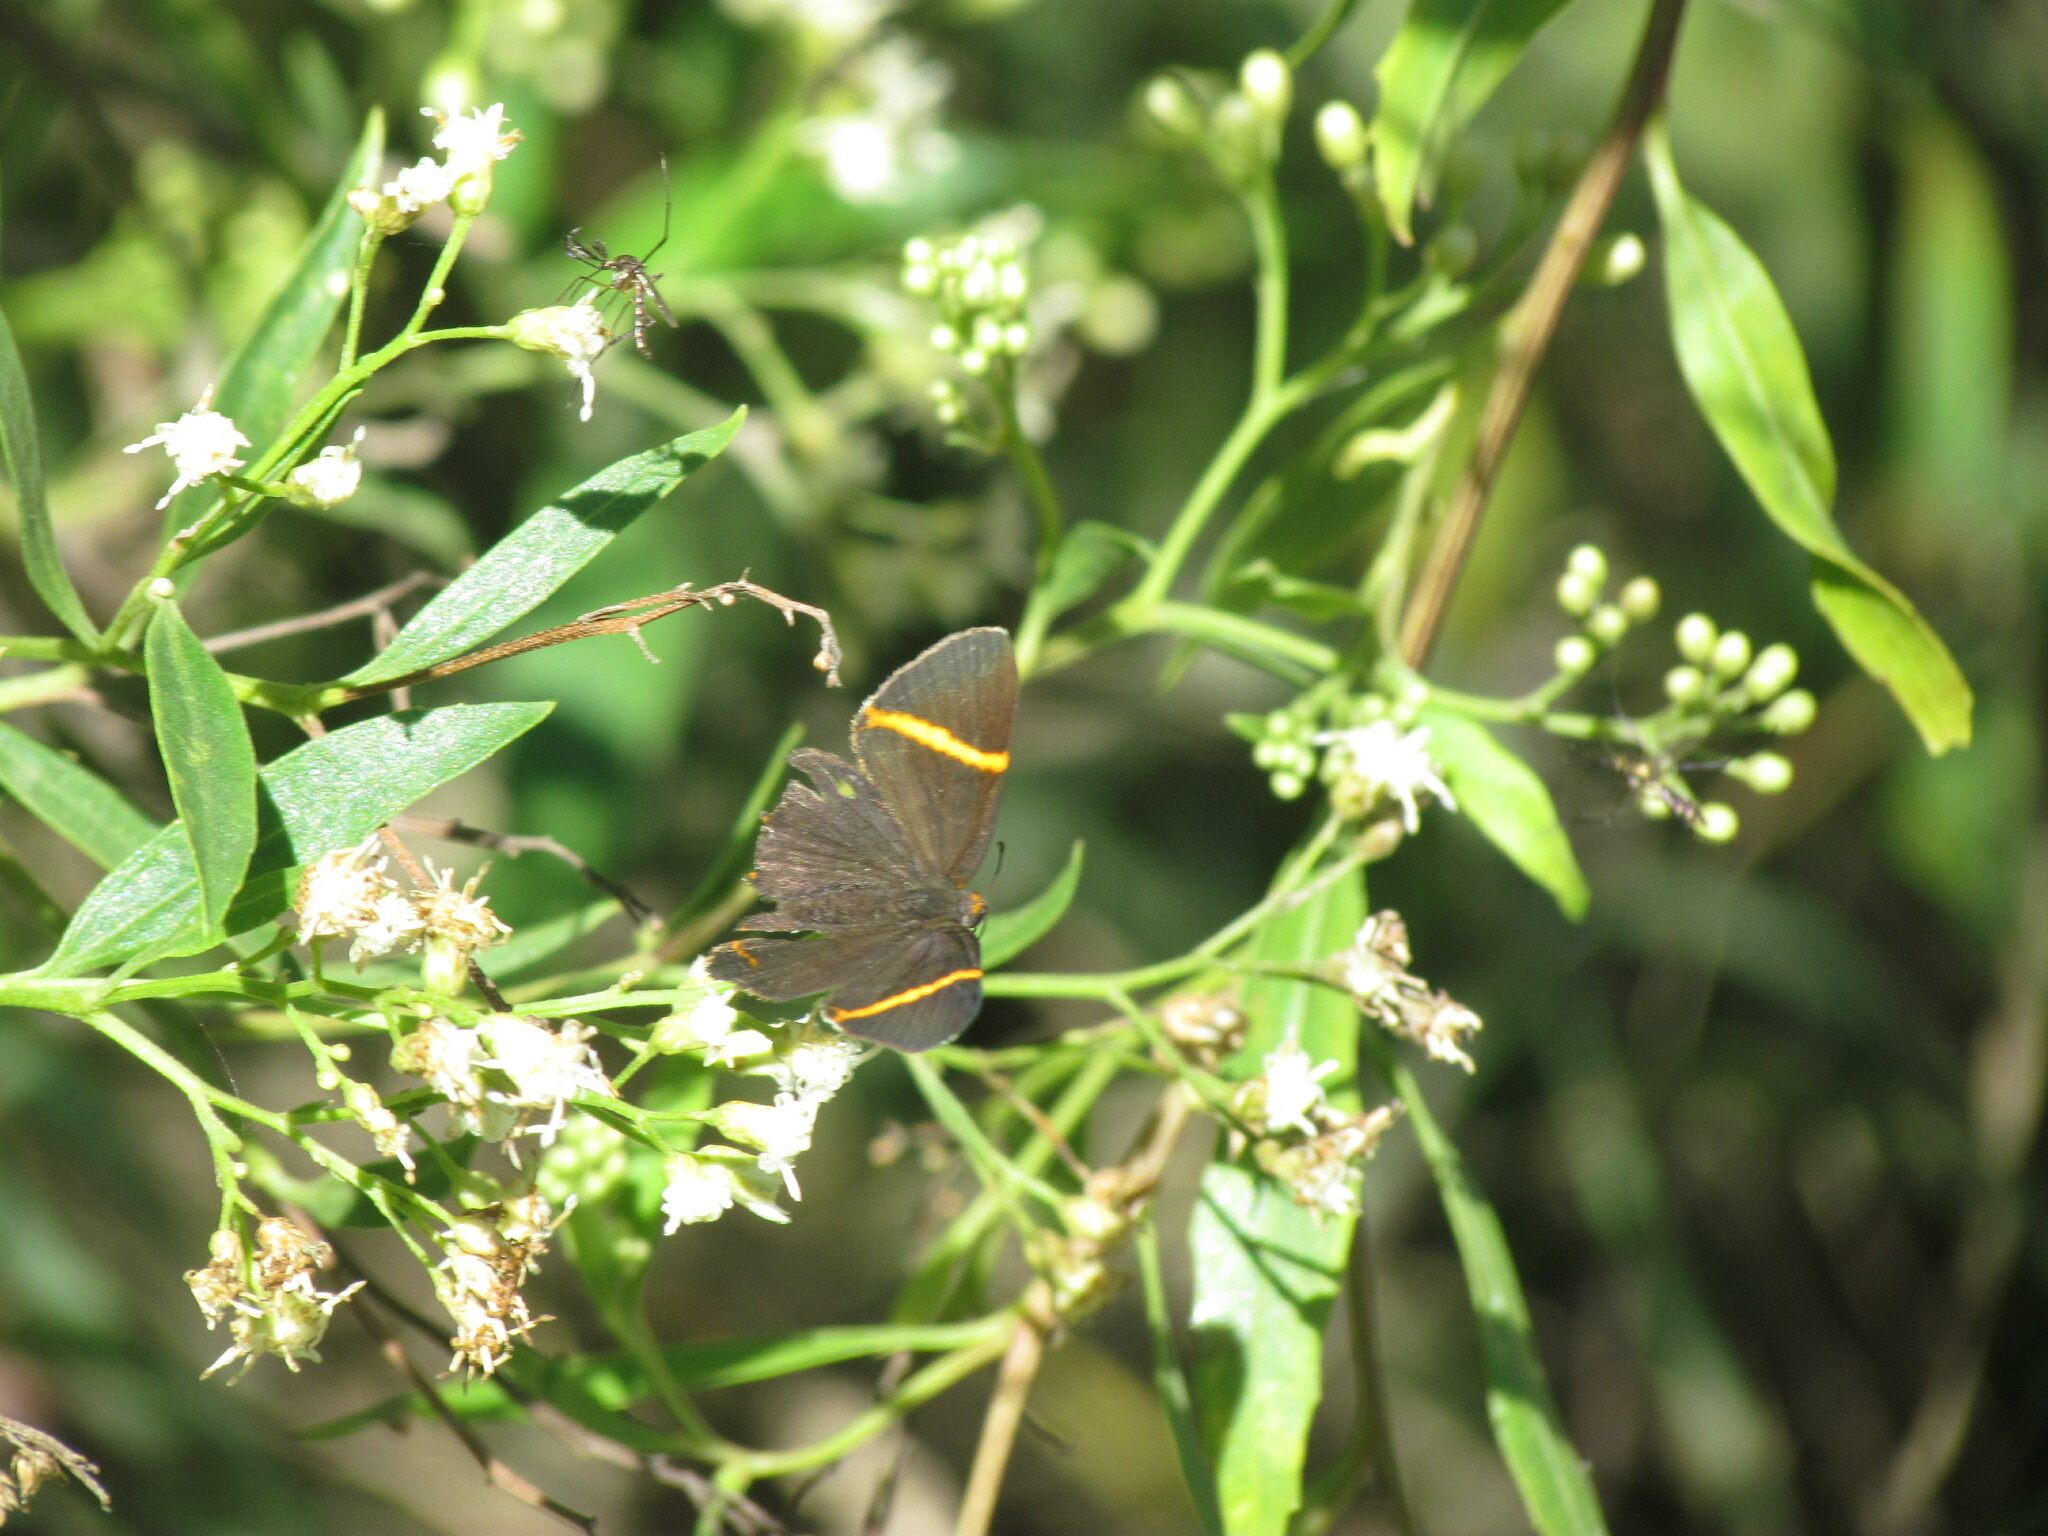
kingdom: Animalia
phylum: Arthropoda
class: Insecta
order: Lepidoptera
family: Riodinidae
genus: Riodina
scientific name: Riodina lysippoides
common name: Little dancer metalmark
